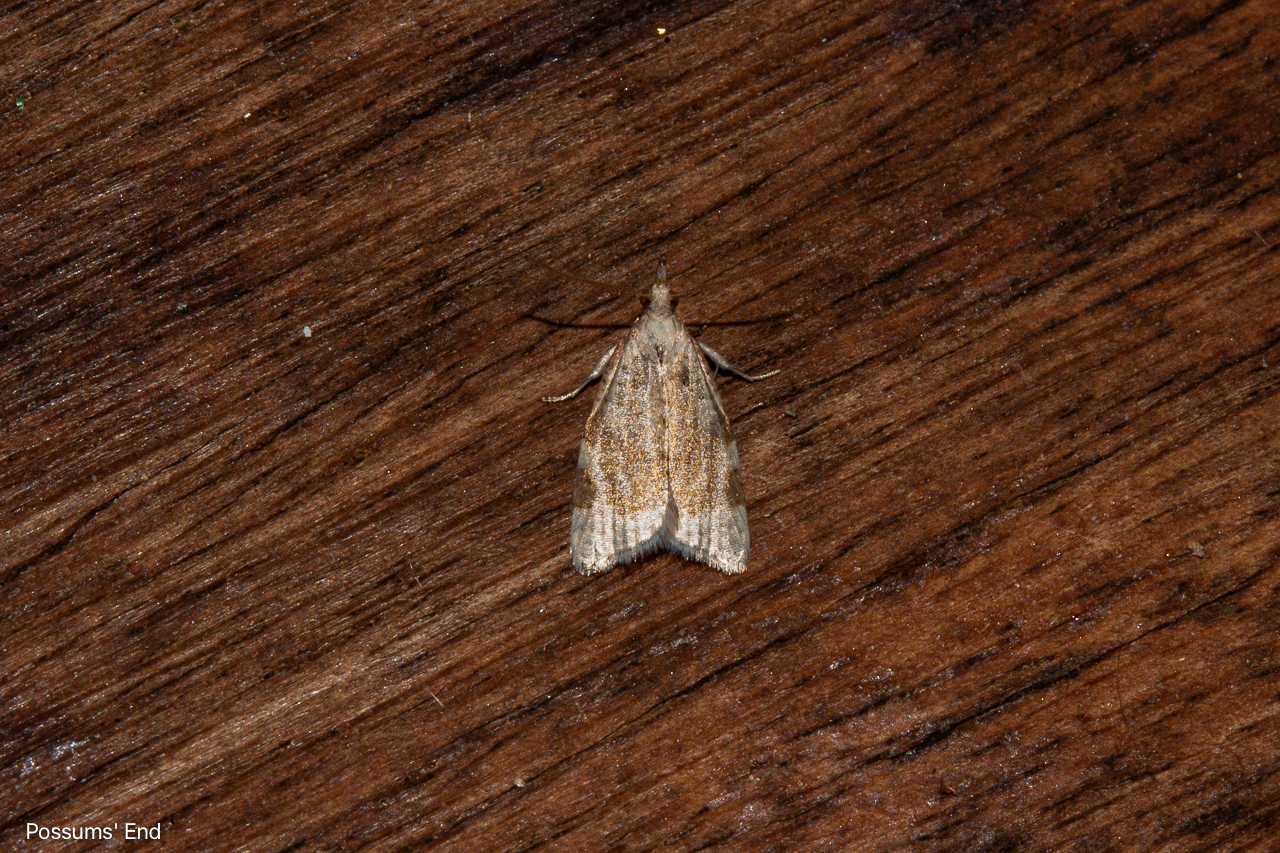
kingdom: Animalia
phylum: Arthropoda
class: Insecta
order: Lepidoptera
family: Tortricidae
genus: Catamacta
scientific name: Catamacta gavisana
